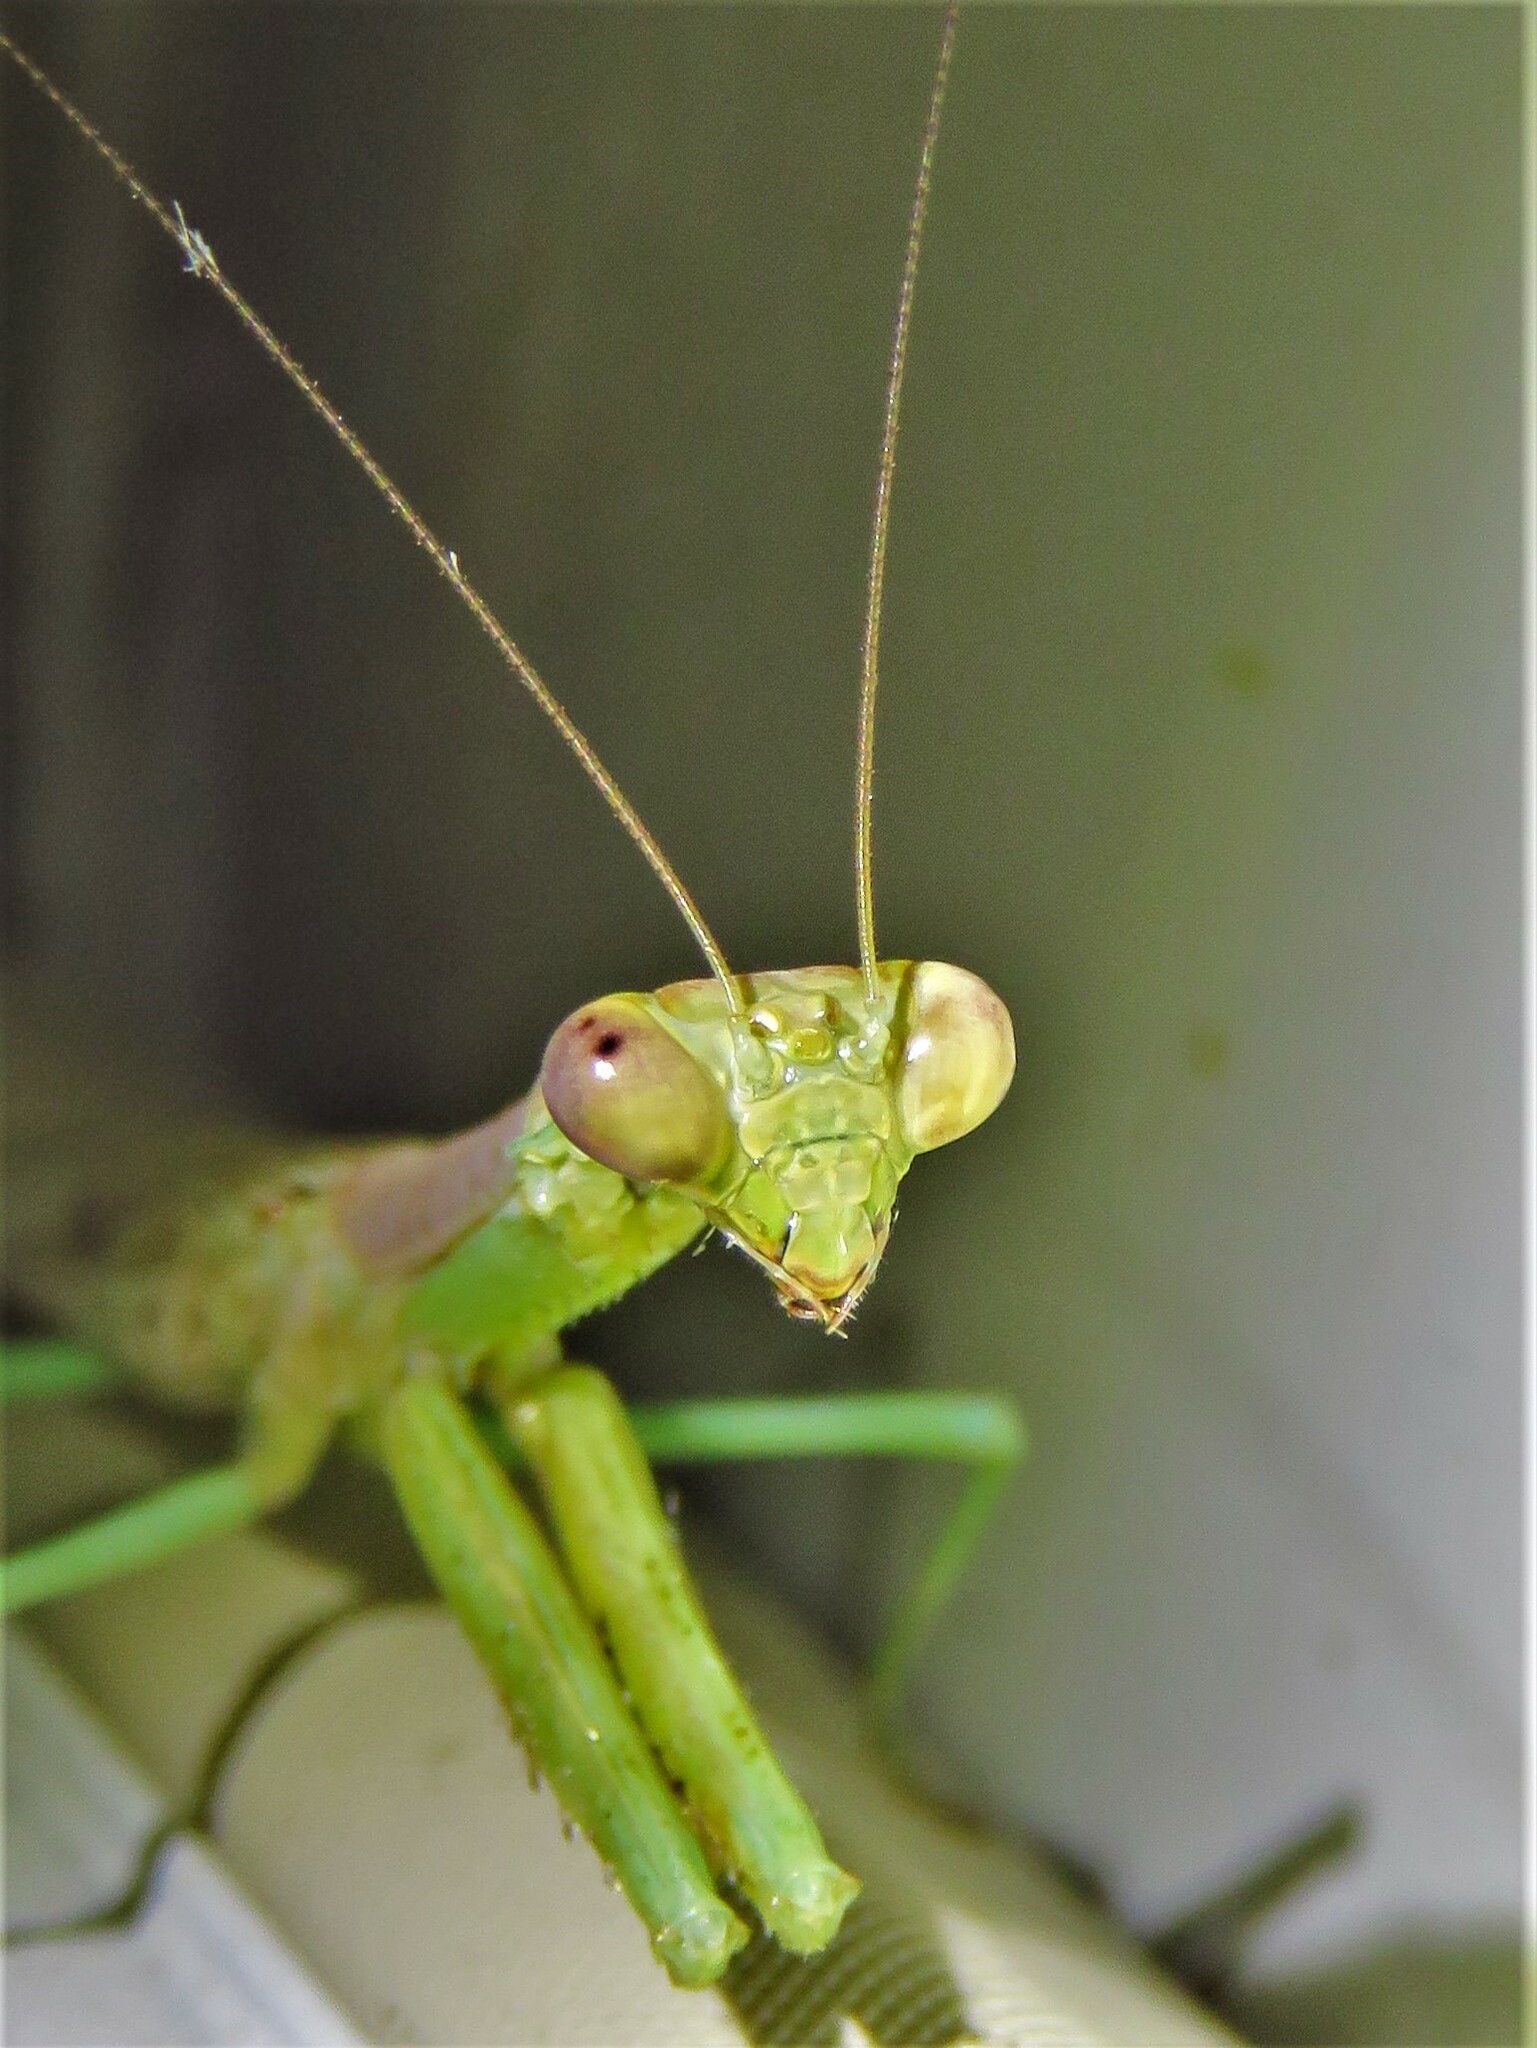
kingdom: Animalia
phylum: Arthropoda
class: Insecta
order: Mantodea
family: Mantidae
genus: Stagmomantis
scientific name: Stagmomantis carolina
